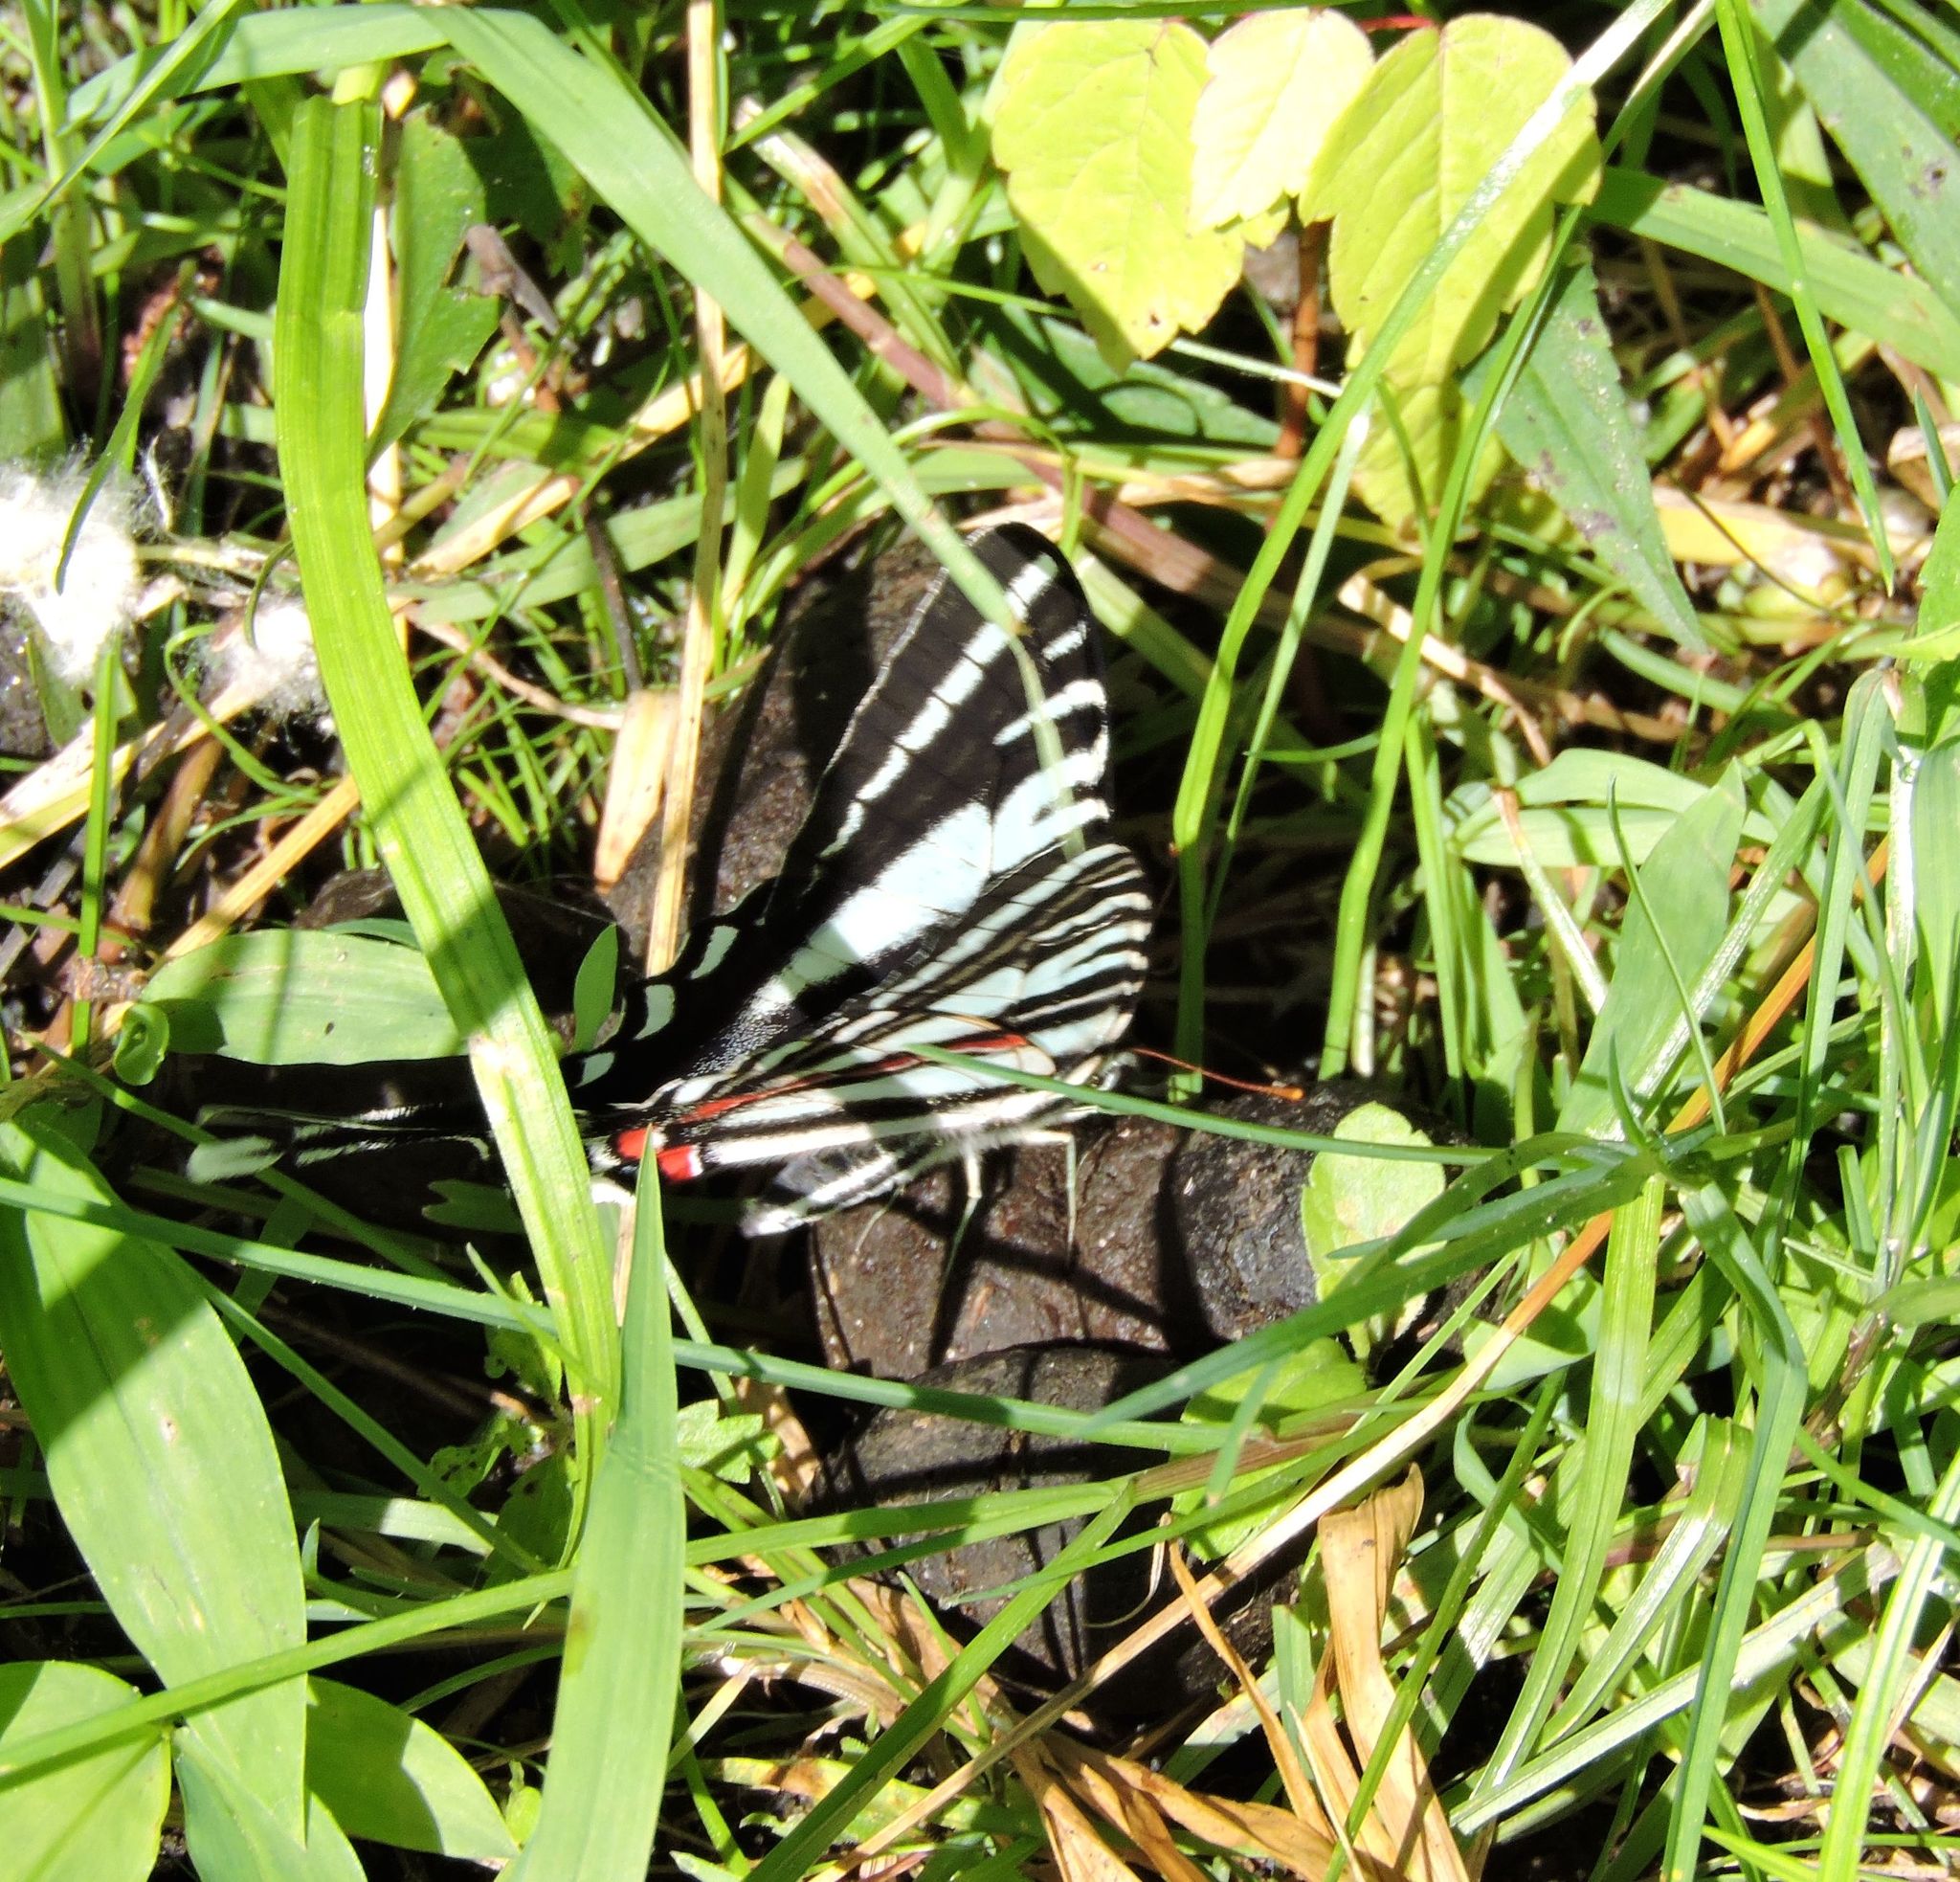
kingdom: Animalia
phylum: Arthropoda
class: Insecta
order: Lepidoptera
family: Papilionidae
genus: Protographium
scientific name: Protographium marcellus
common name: Zebra swallowtail
